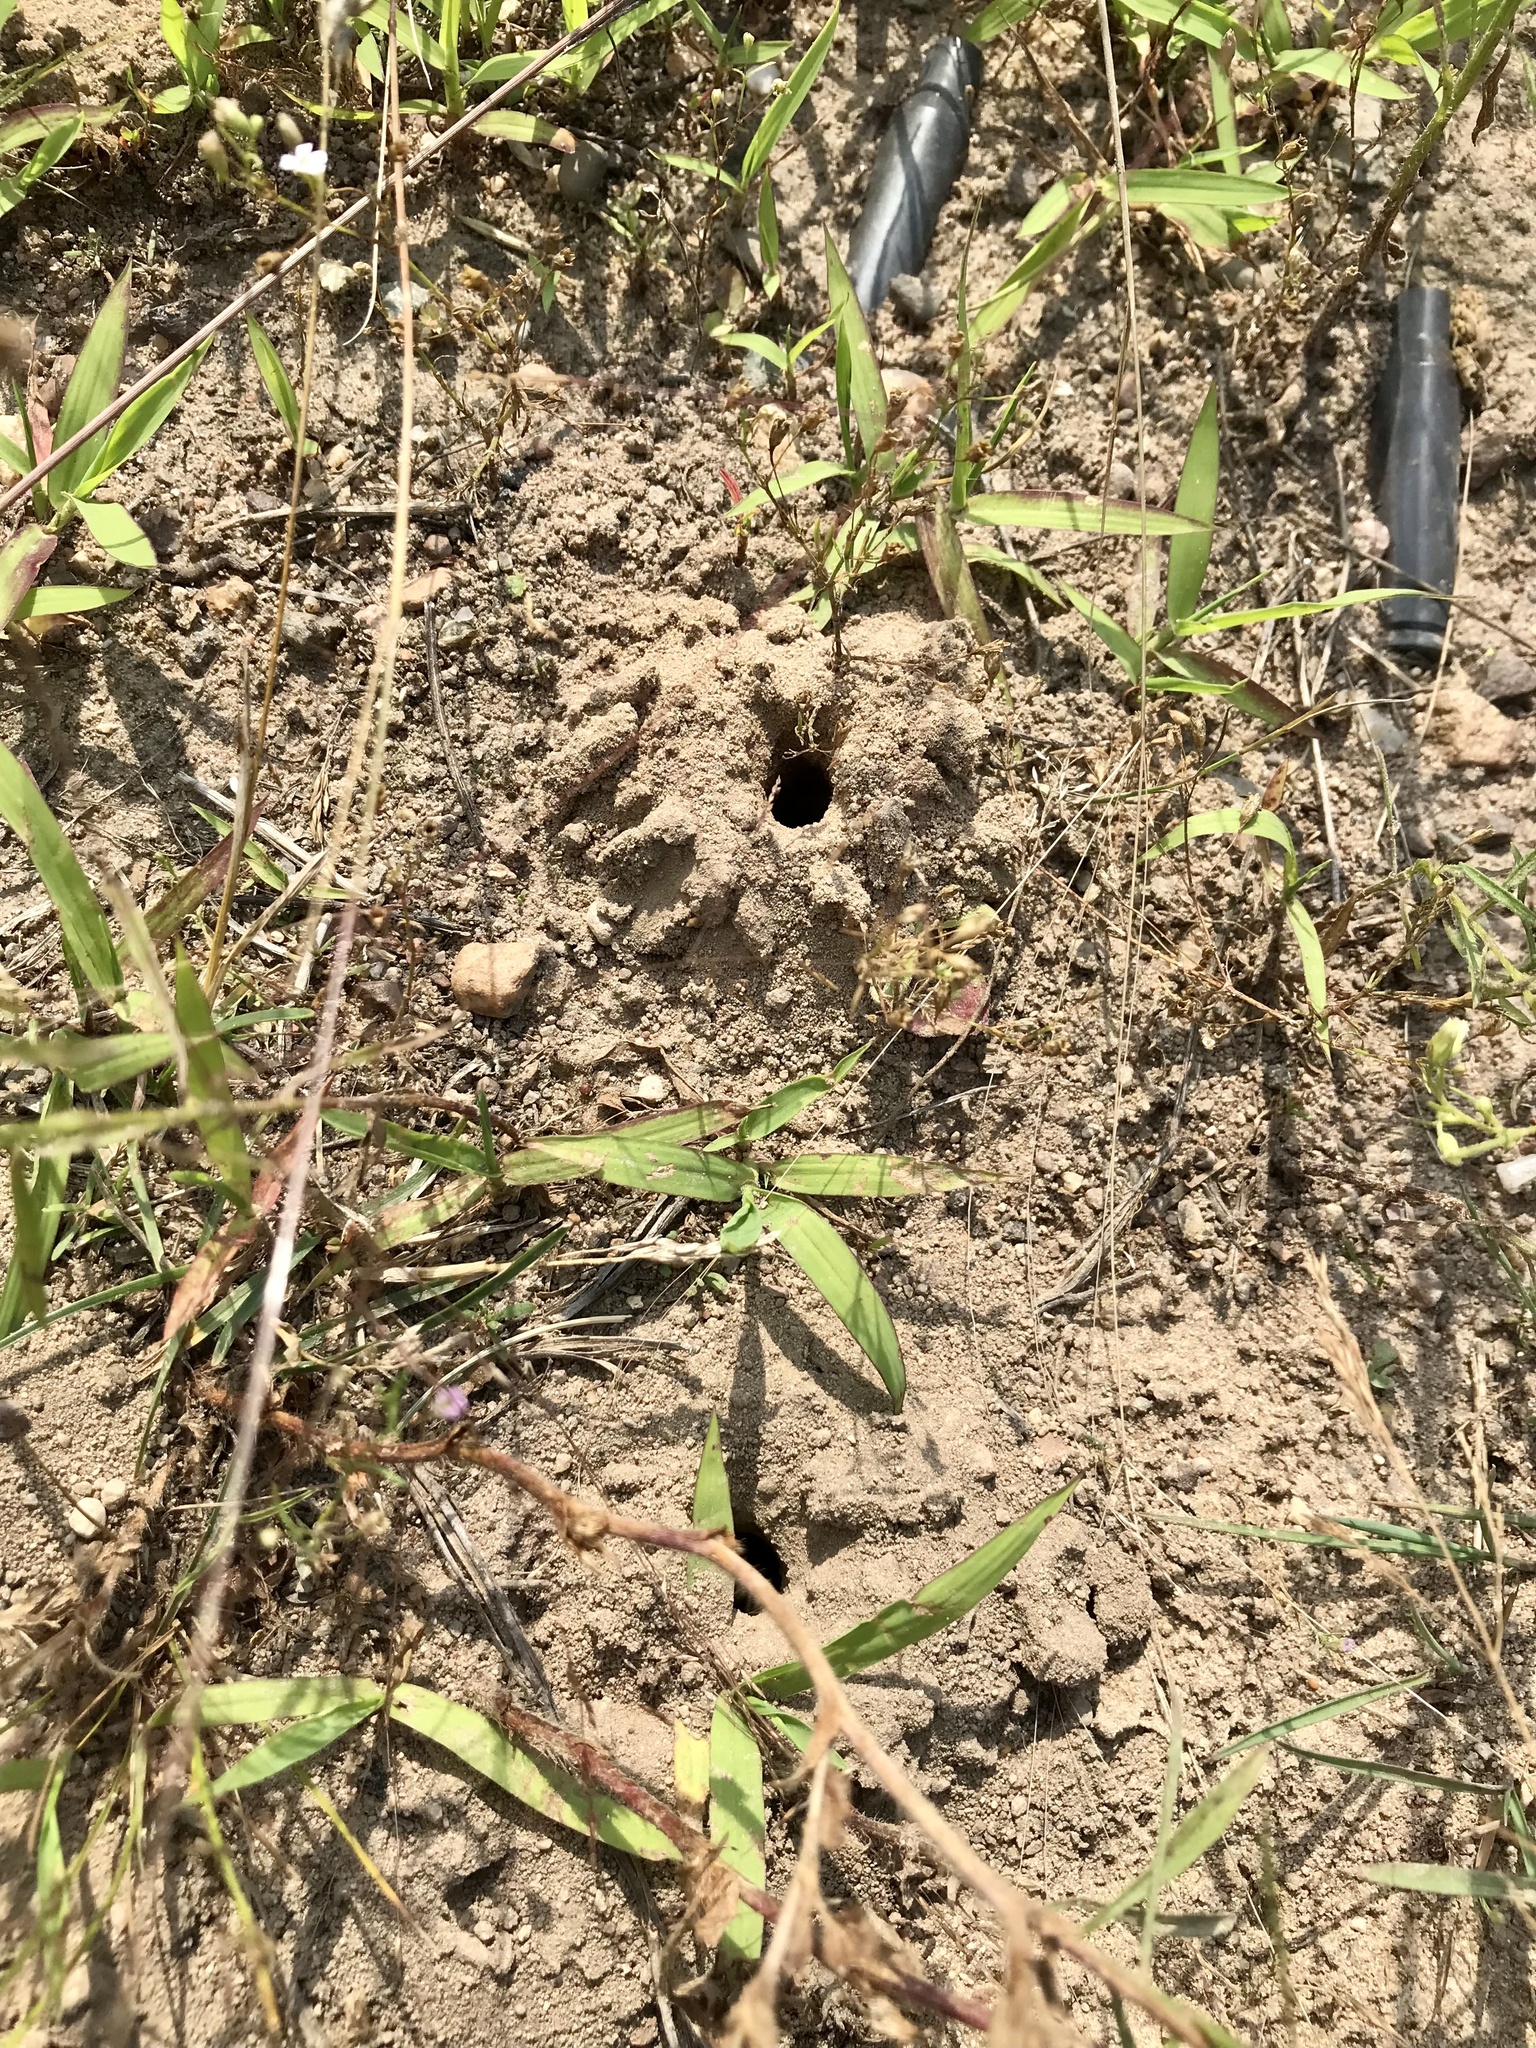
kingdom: Animalia
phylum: Arthropoda
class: Insecta
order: Hymenoptera
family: Crabronidae
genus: Cerceris
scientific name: Cerceris fumipennis
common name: Smokey-winged beetle bandit wasp
